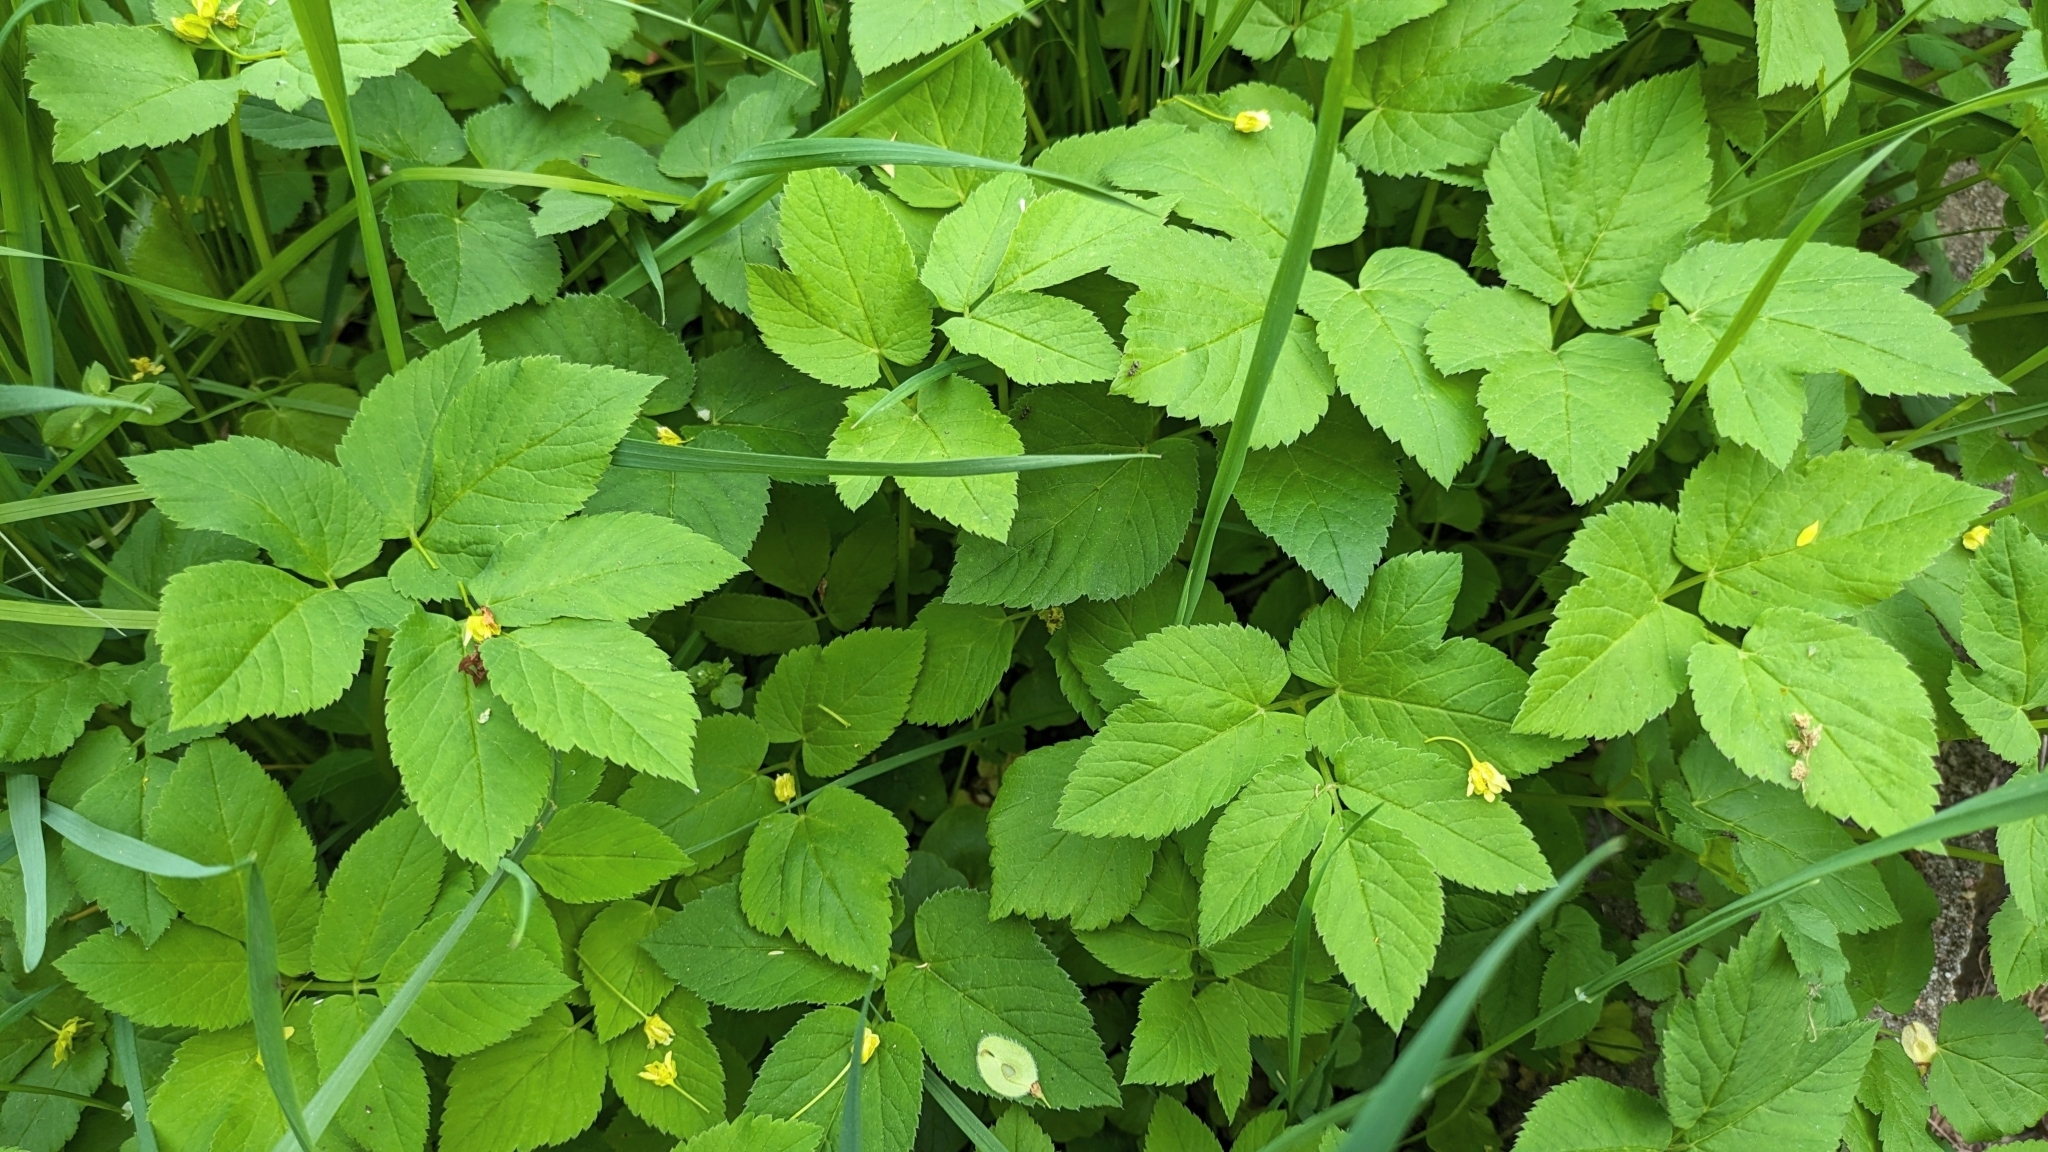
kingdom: Plantae
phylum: Tracheophyta
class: Magnoliopsida
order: Apiales
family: Apiaceae
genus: Aegopodium
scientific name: Aegopodium podagraria
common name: Ground-elder
